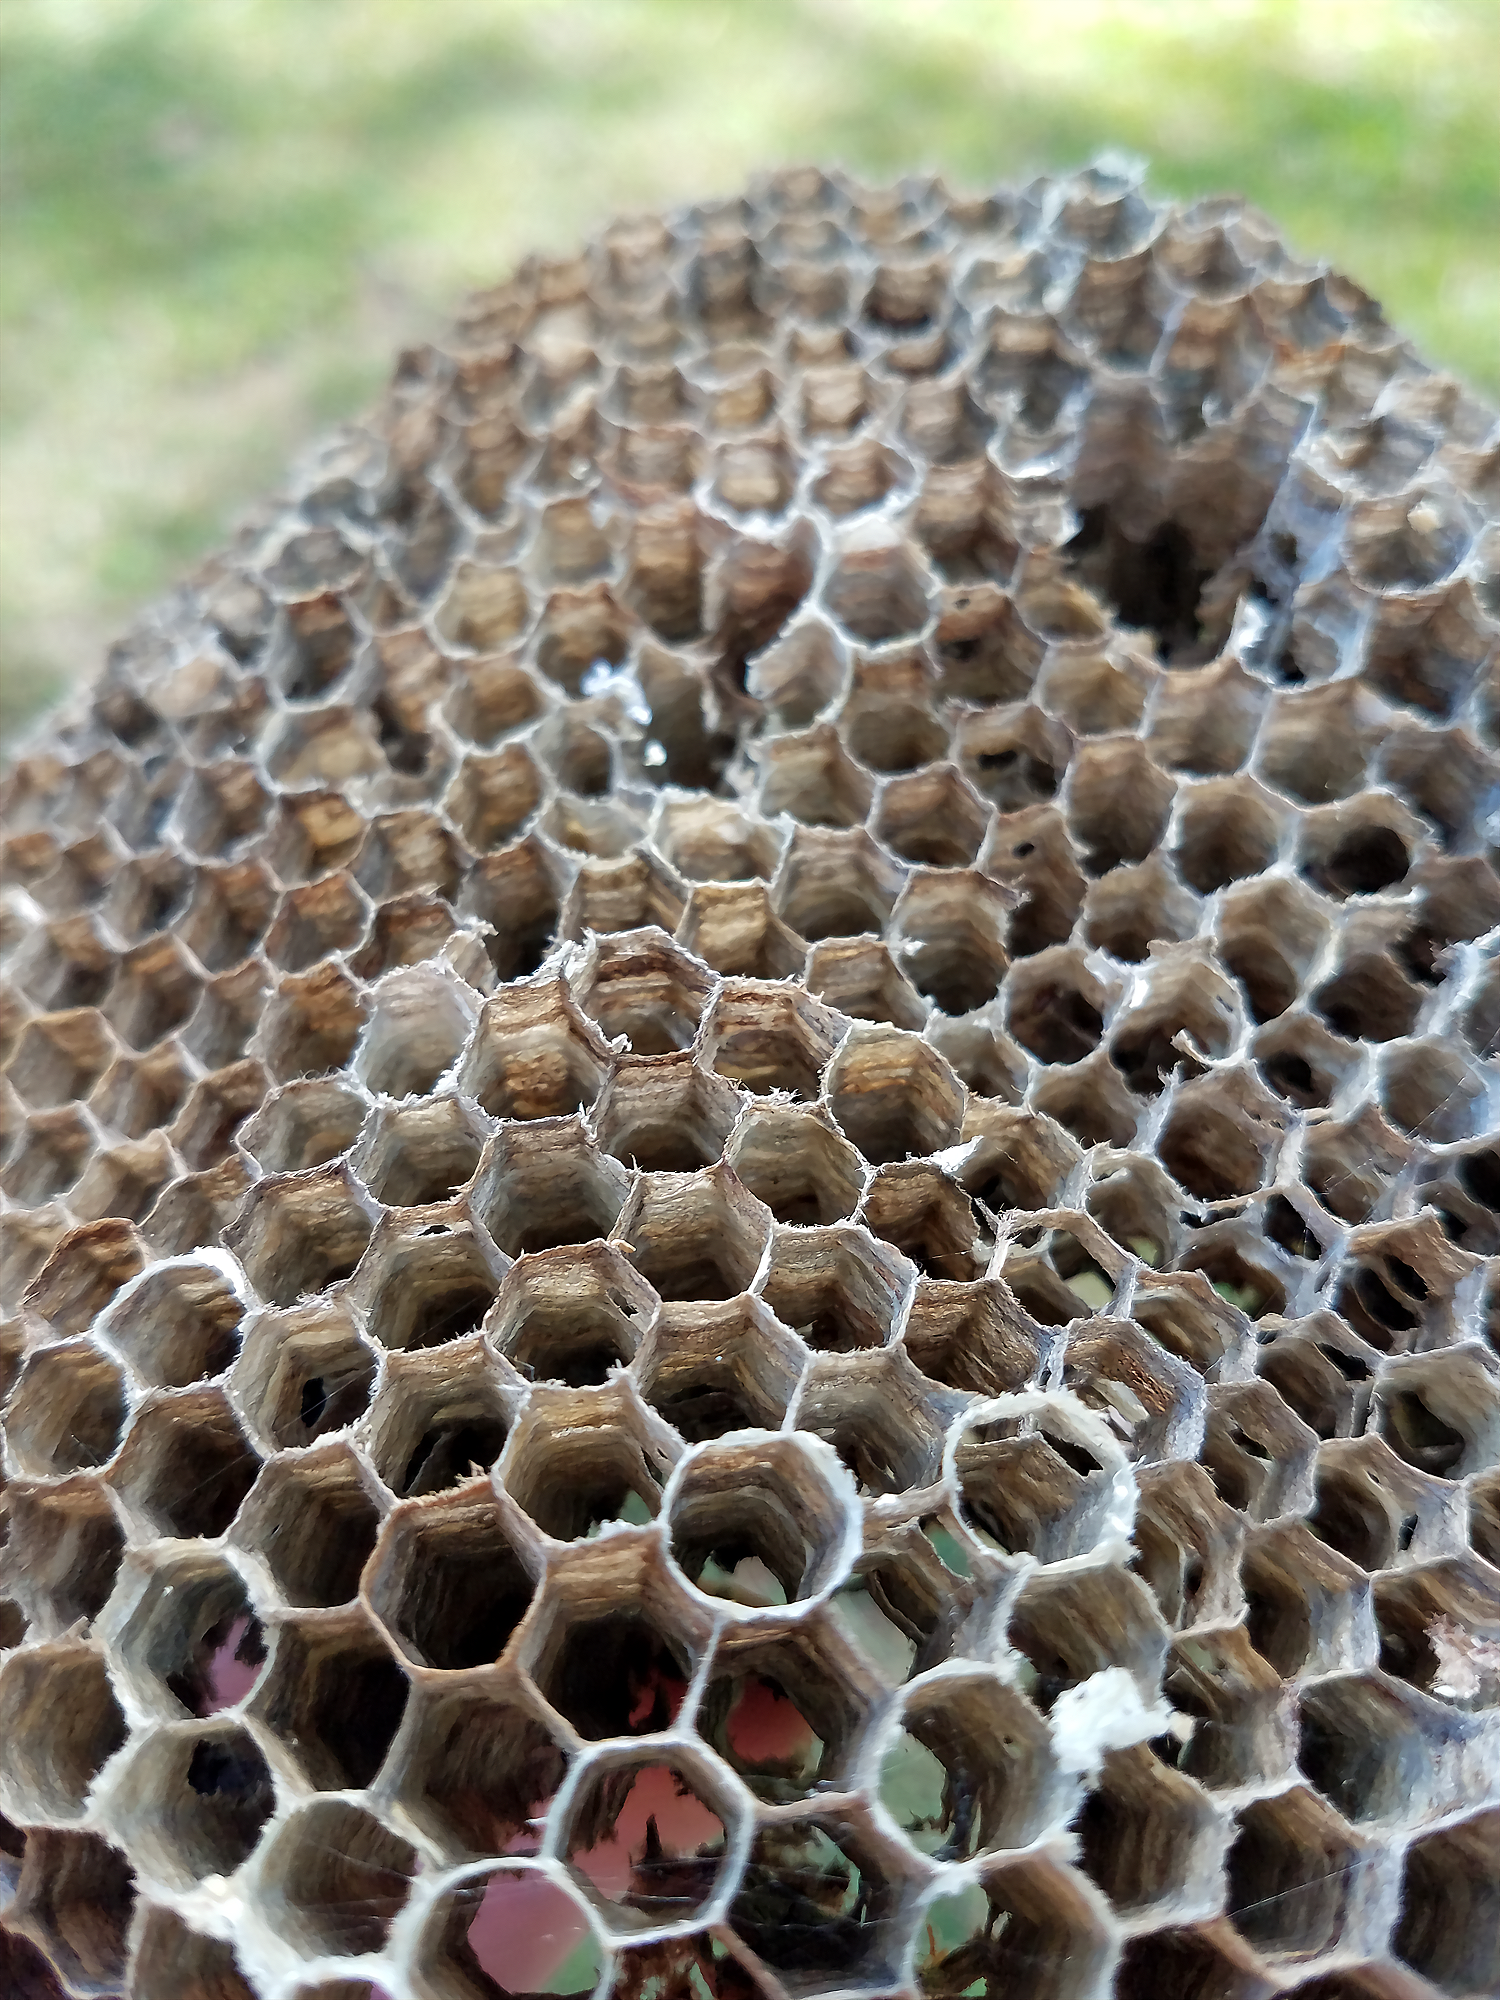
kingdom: Animalia
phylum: Arthropoda
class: Insecta
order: Hymenoptera
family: Eumenidae
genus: Polistes
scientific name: Polistes
